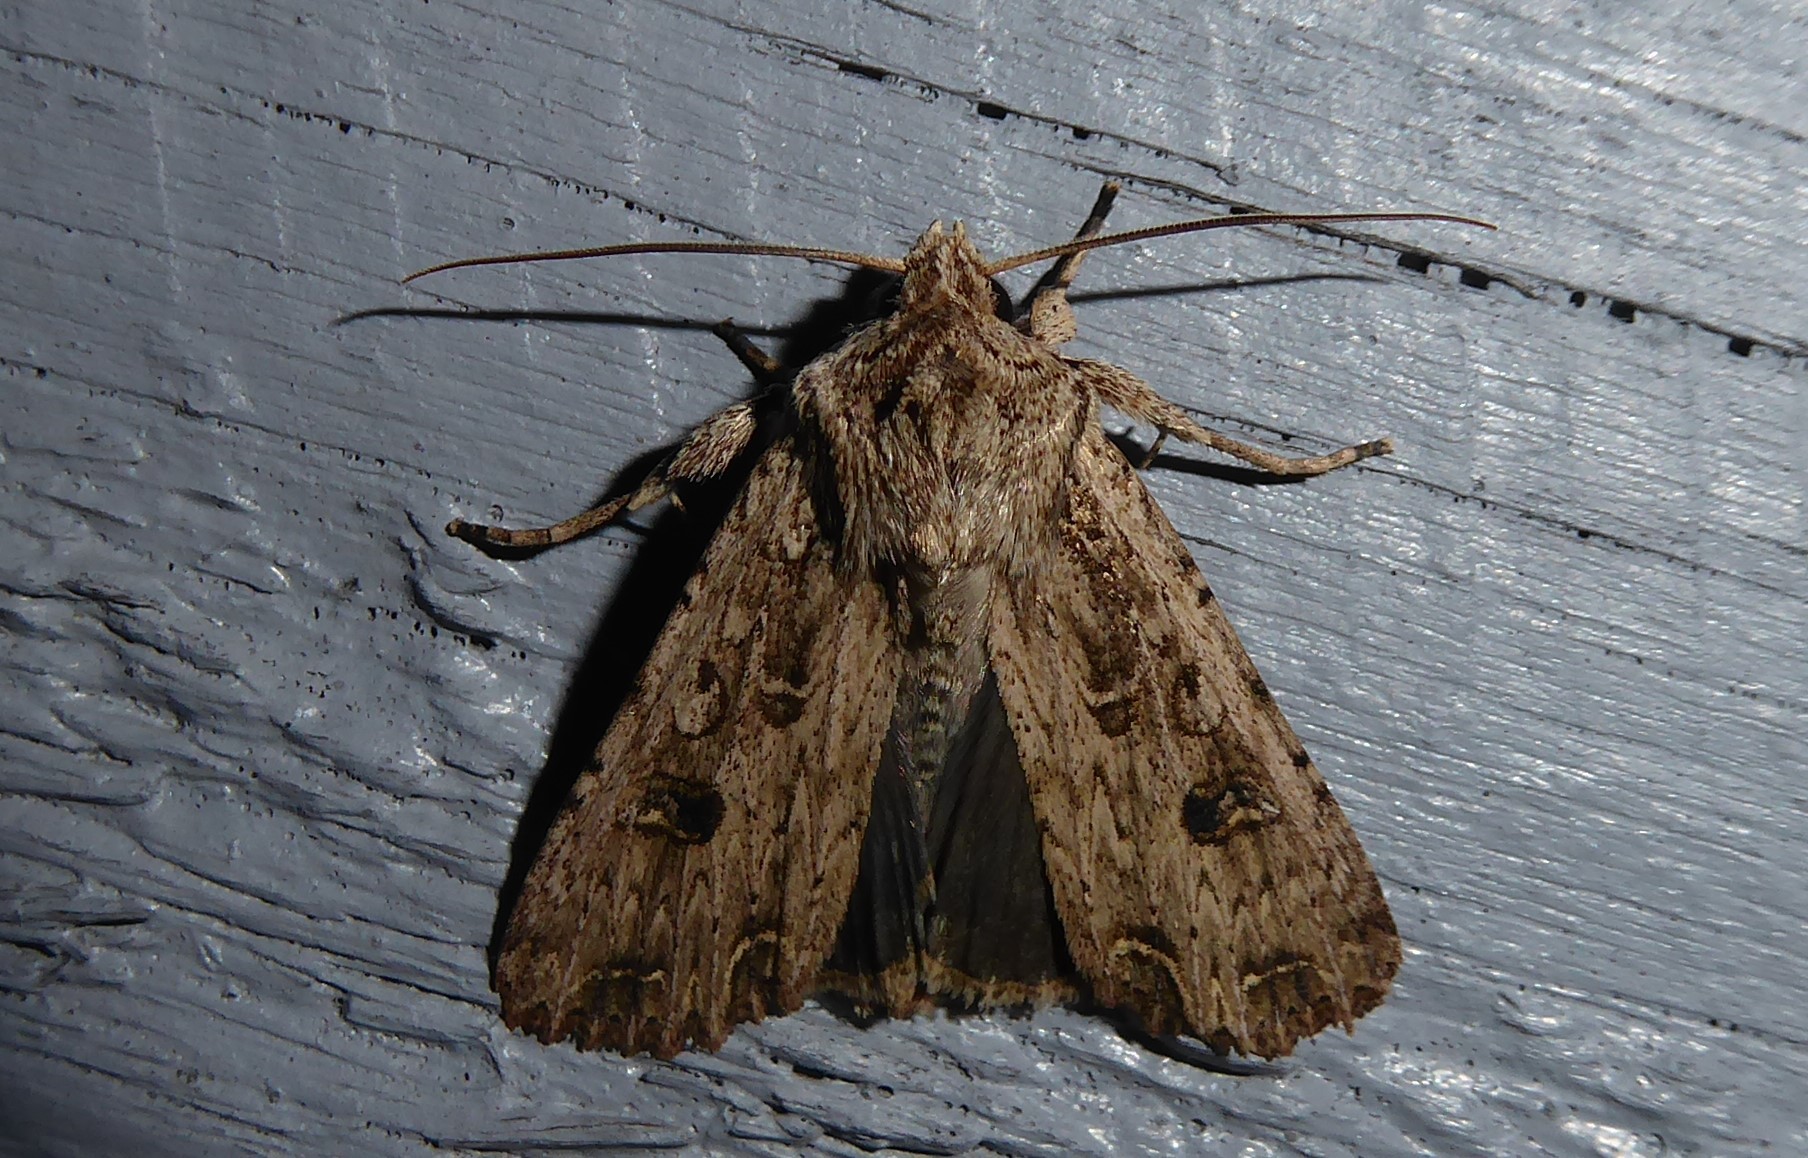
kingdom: Animalia
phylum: Arthropoda
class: Insecta
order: Lepidoptera
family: Noctuidae
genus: Ichneutica
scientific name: Ichneutica lignana
